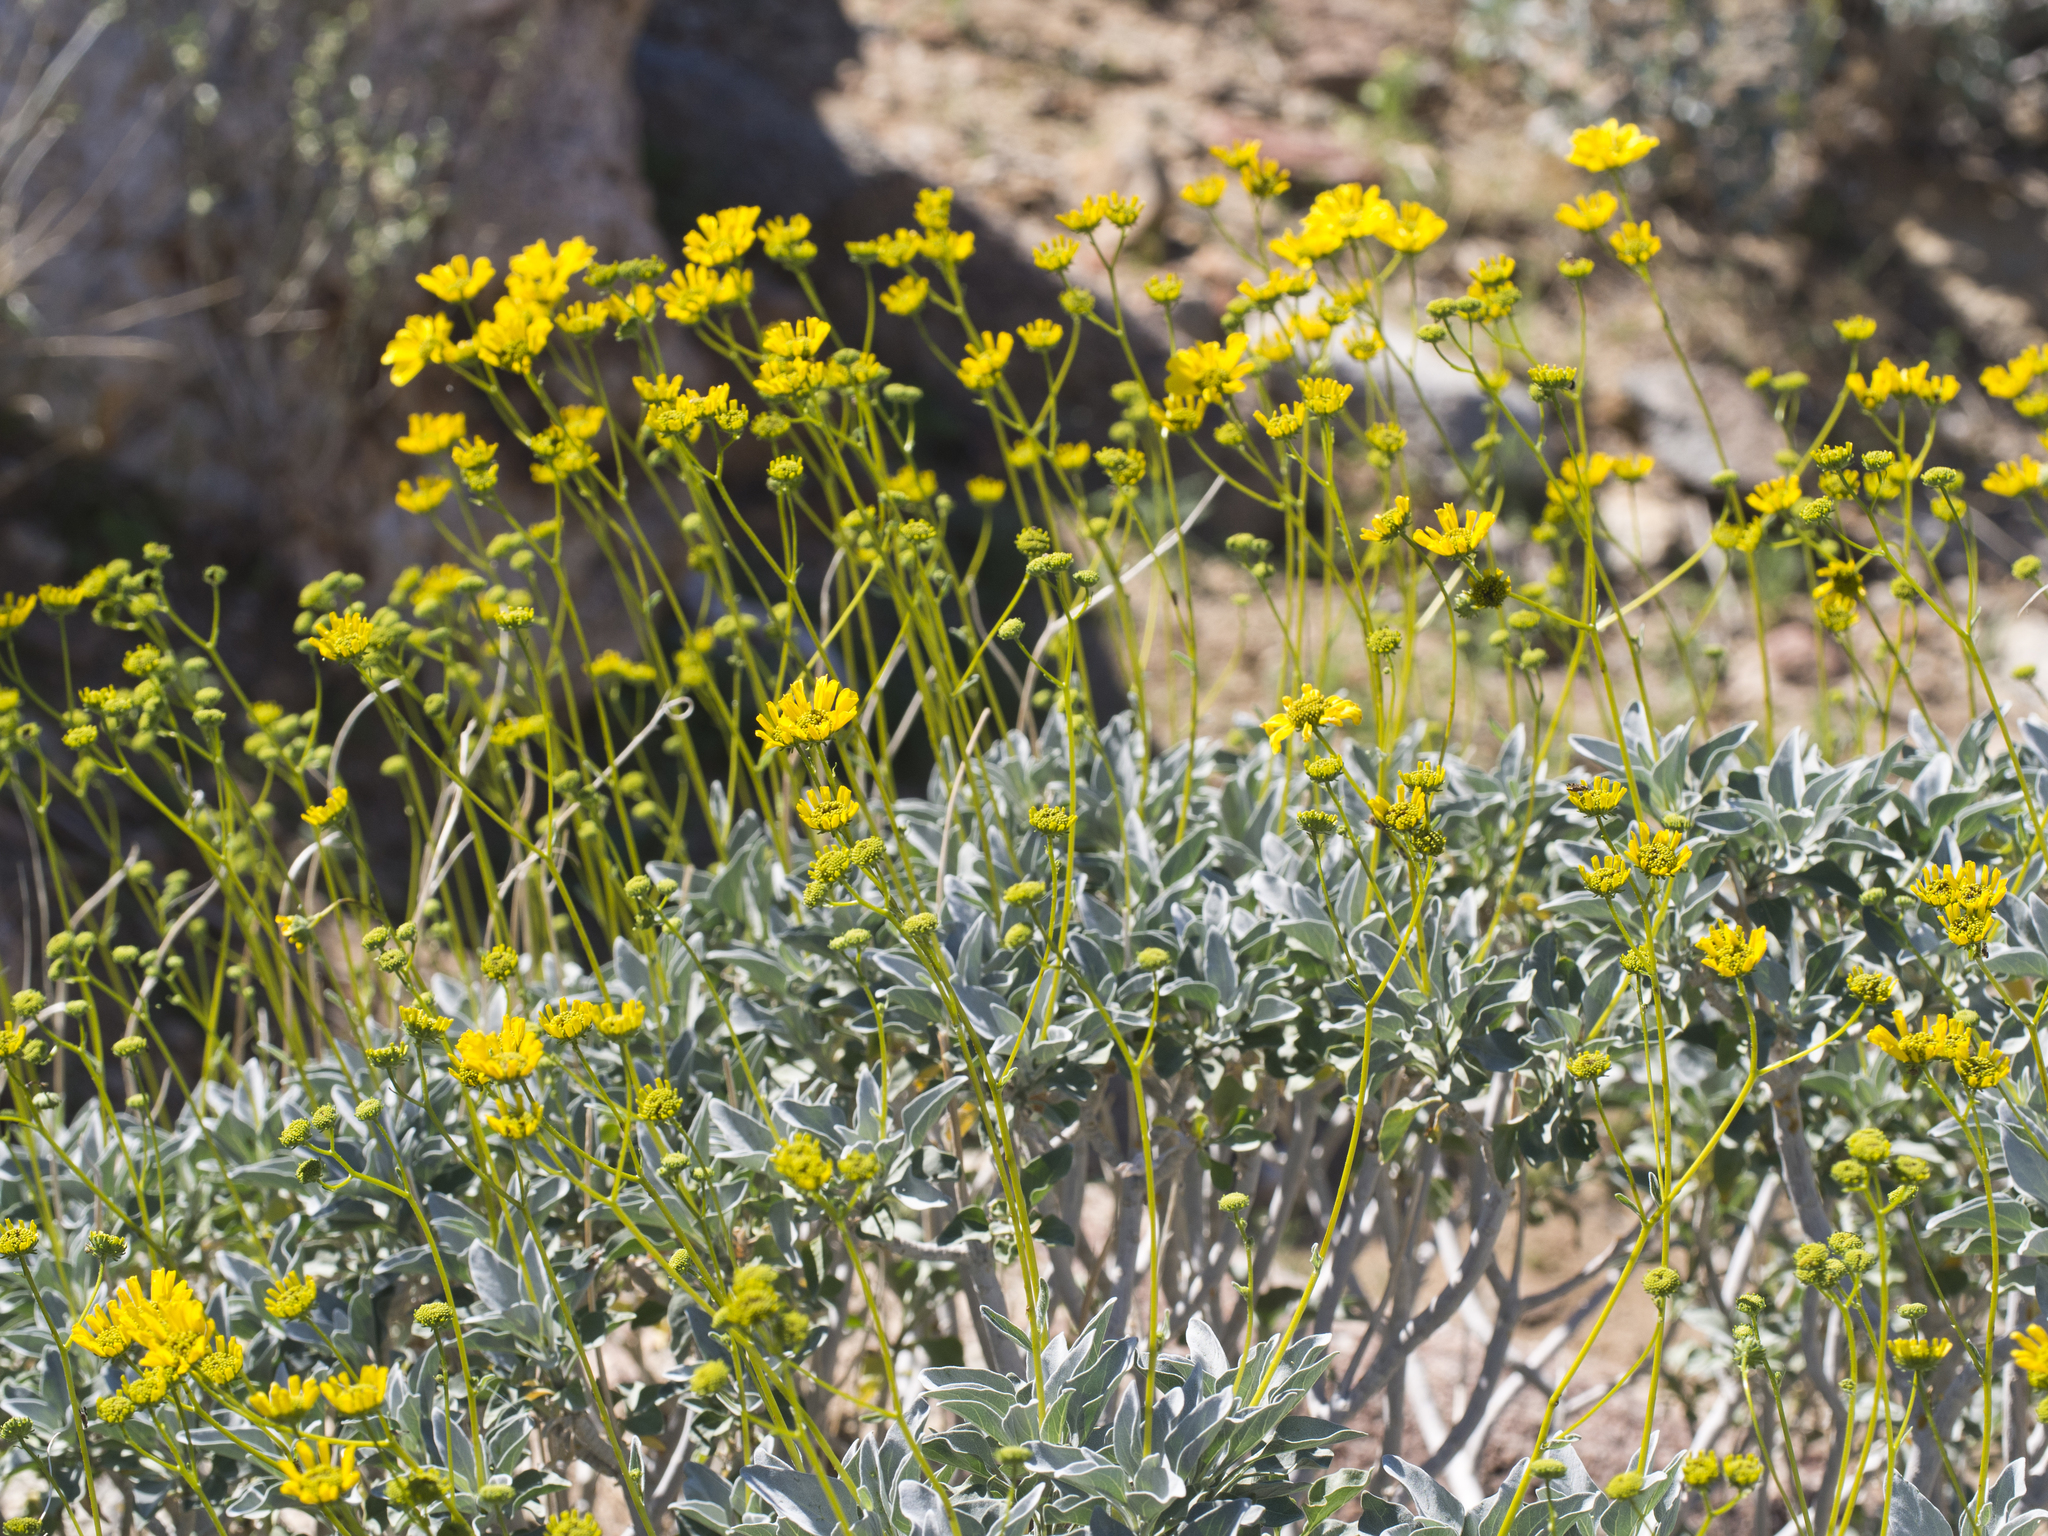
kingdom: Plantae
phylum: Tracheophyta
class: Magnoliopsida
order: Asterales
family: Asteraceae
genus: Encelia
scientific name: Encelia farinosa
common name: Brittlebush
